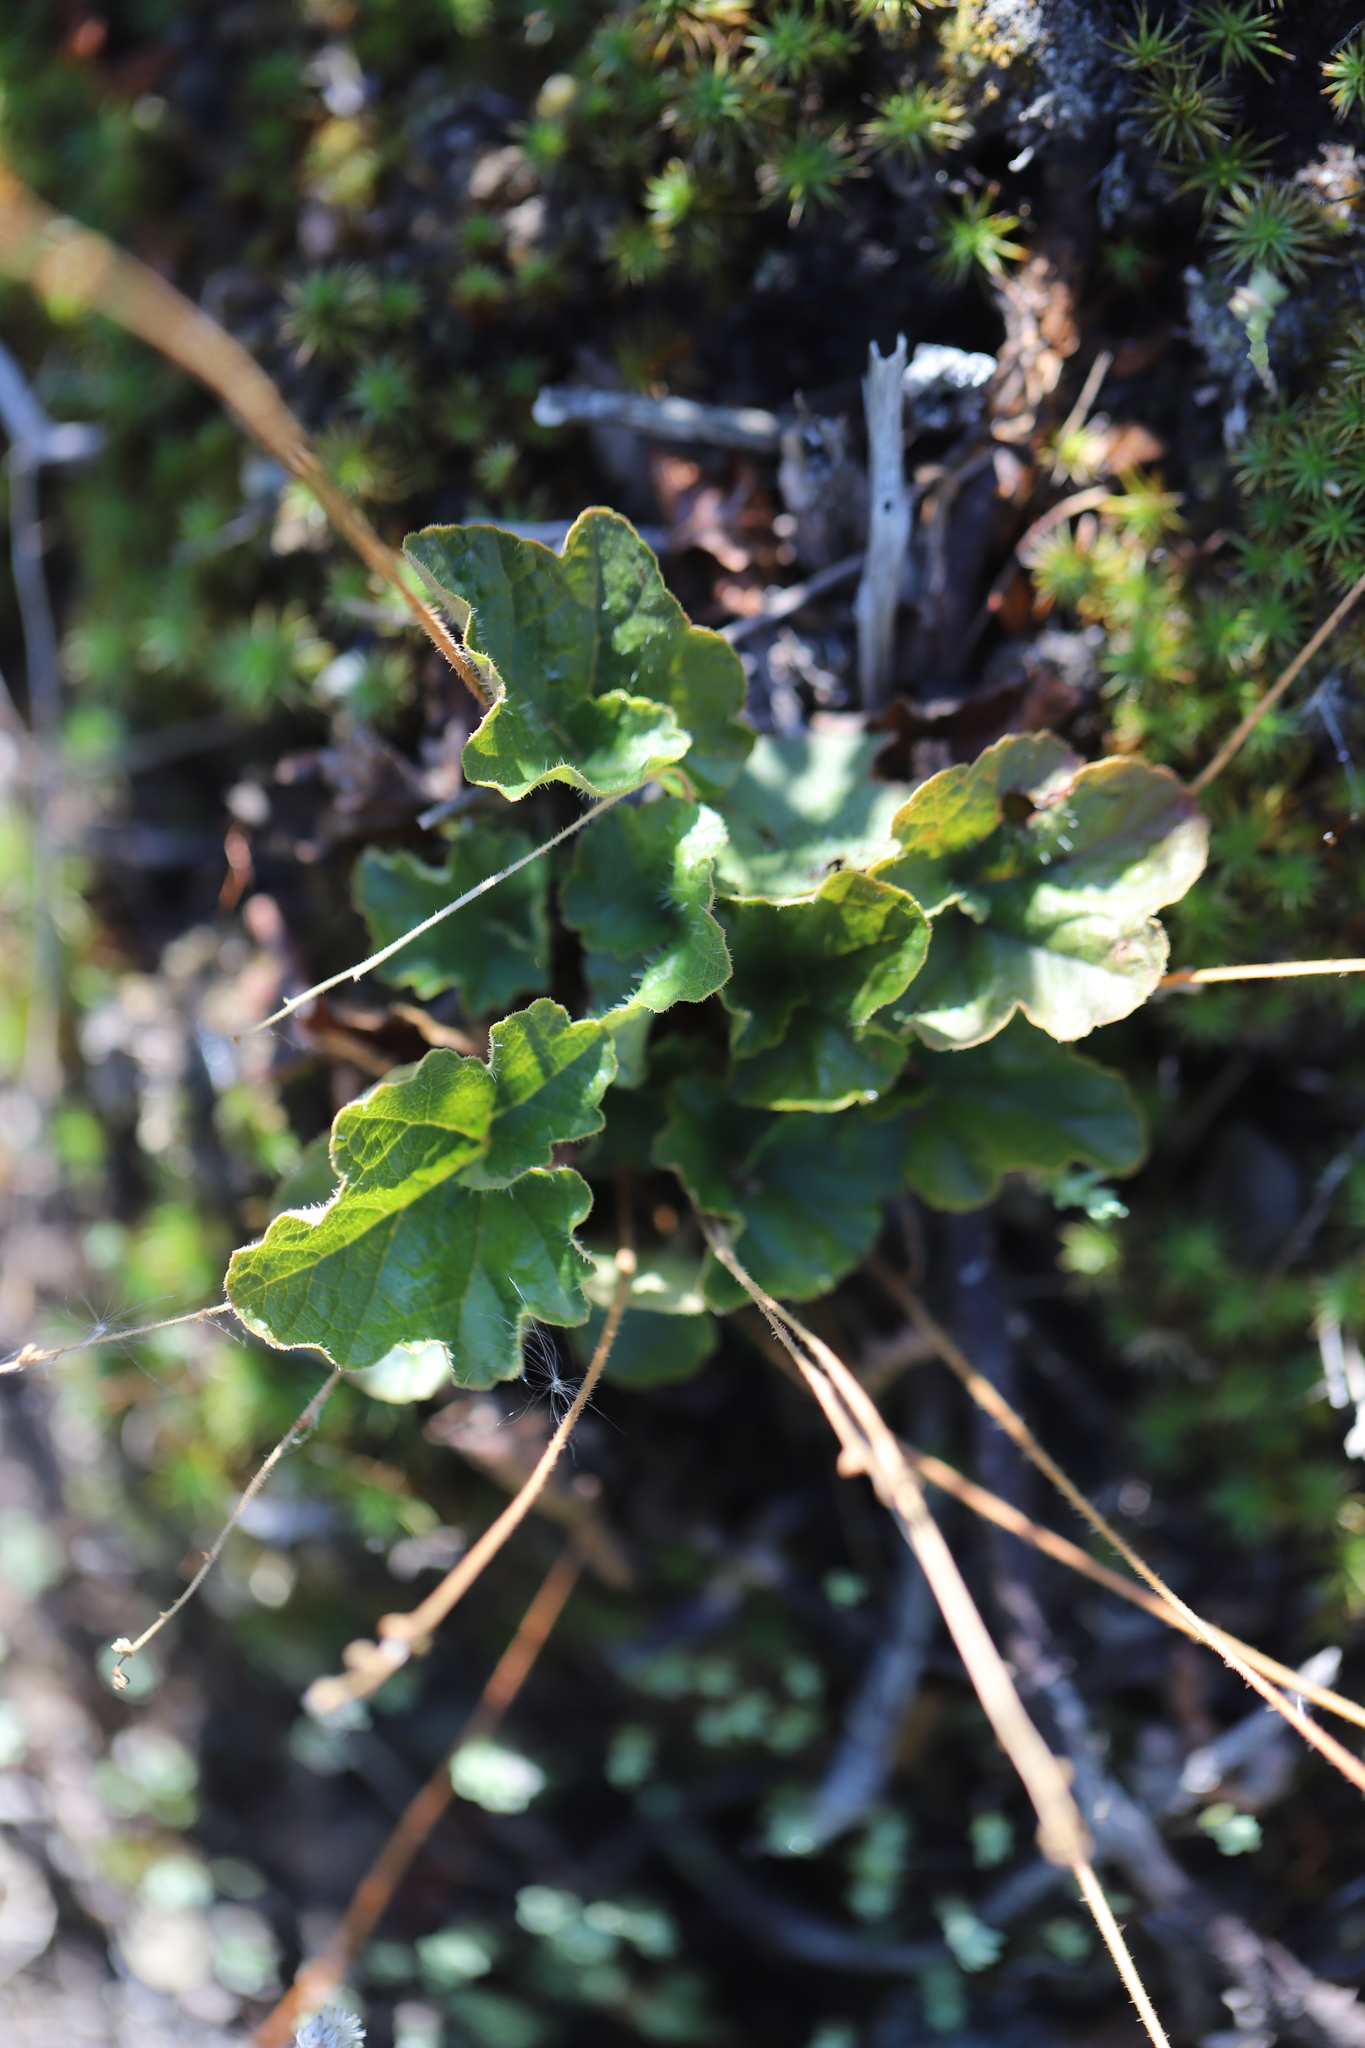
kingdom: Plantae
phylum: Tracheophyta
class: Magnoliopsida
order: Saxifragales
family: Saxifragaceae
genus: Heuchera
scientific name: Heuchera cylindrica
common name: Mat alumroot
